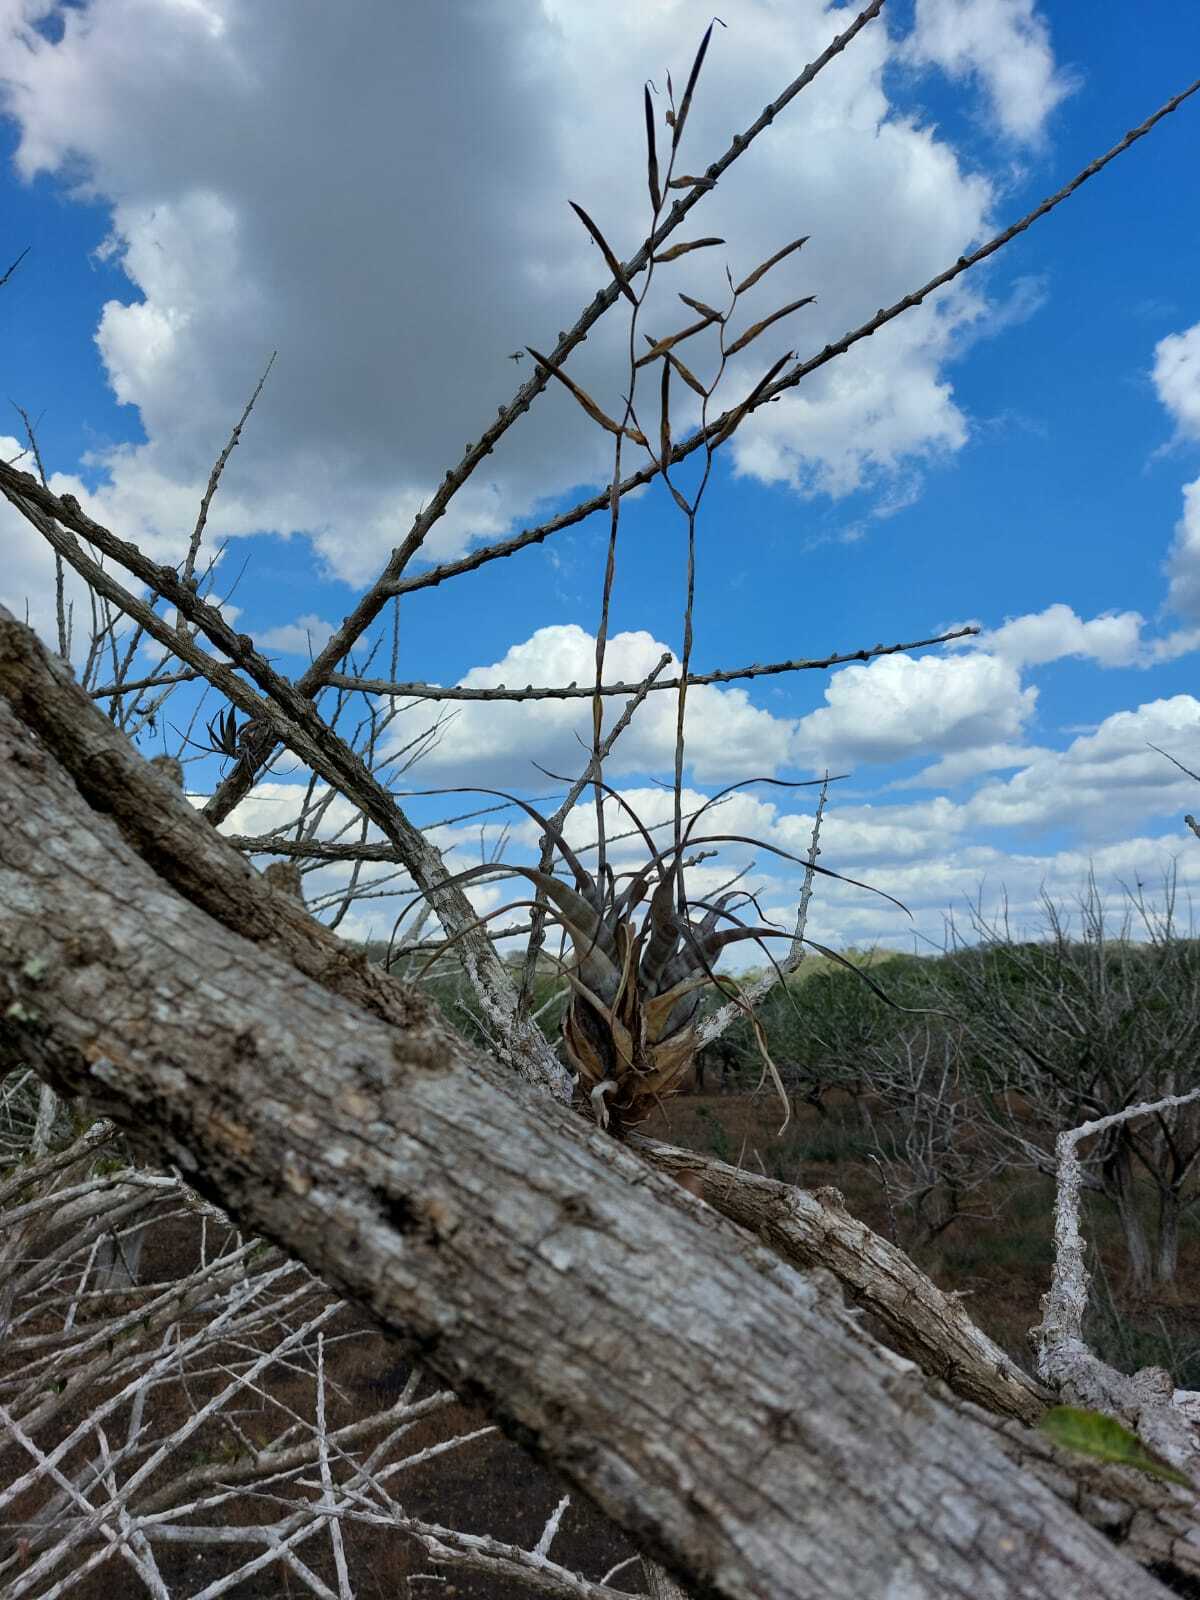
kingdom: Plantae
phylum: Tracheophyta
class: Liliopsida
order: Poales
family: Bromeliaceae
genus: Tillandsia
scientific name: Tillandsia flexuosa
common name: Banded airplant
